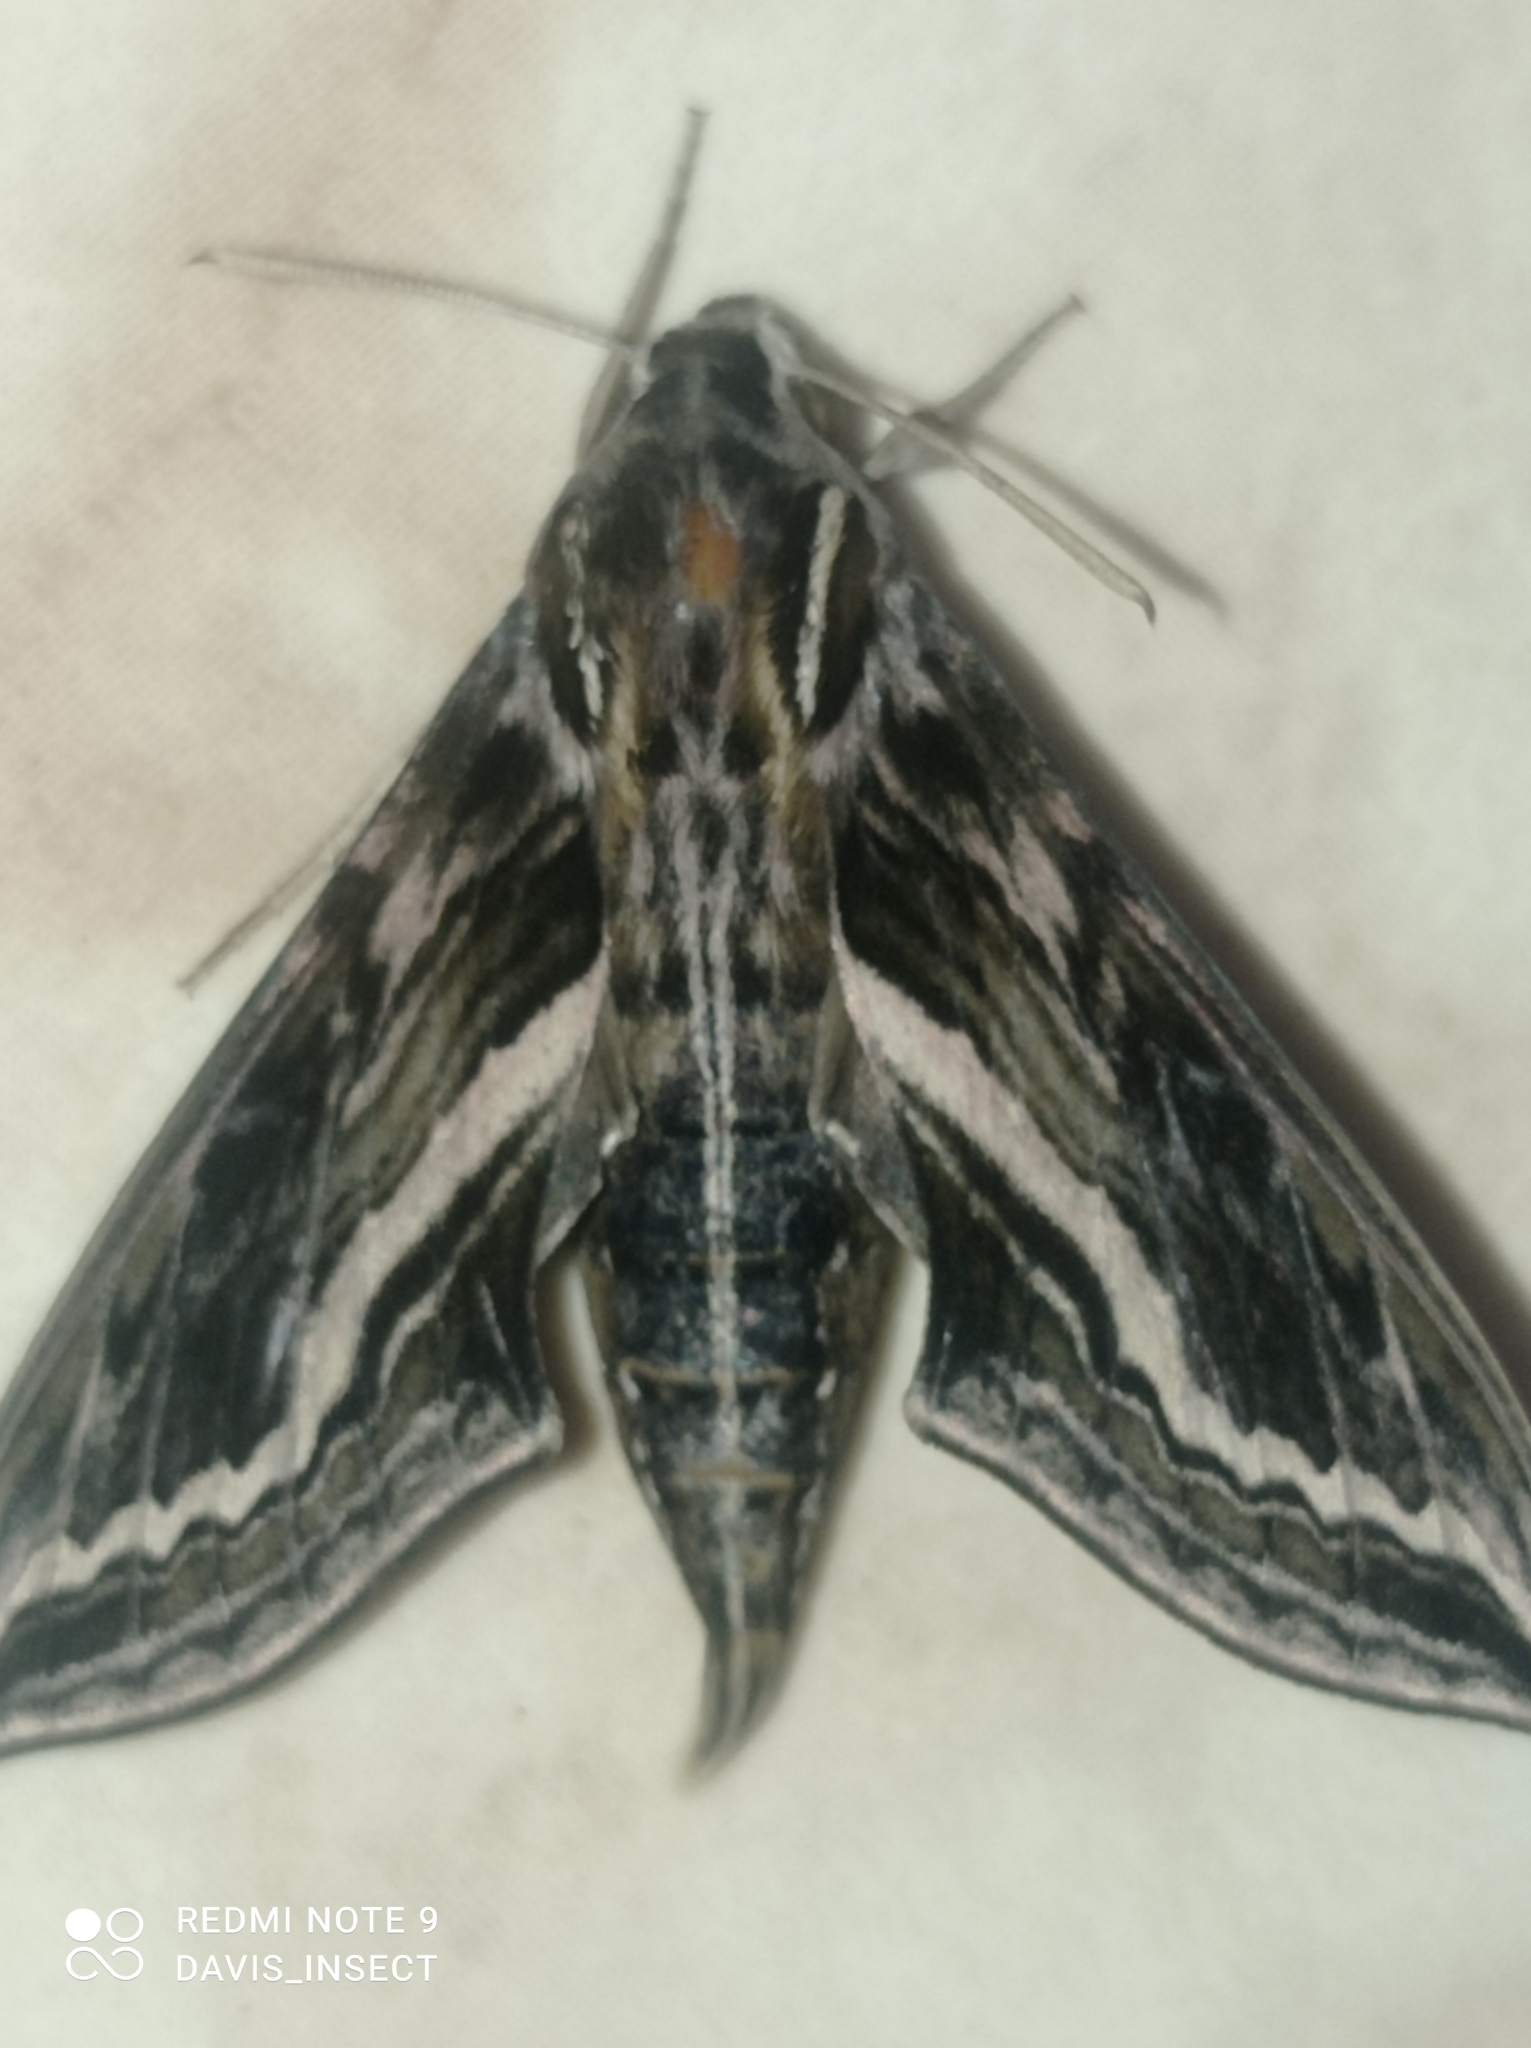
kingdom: Animalia
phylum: Arthropoda
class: Insecta
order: Lepidoptera
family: Sphingidae
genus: Theretra
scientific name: Theretra insignis
